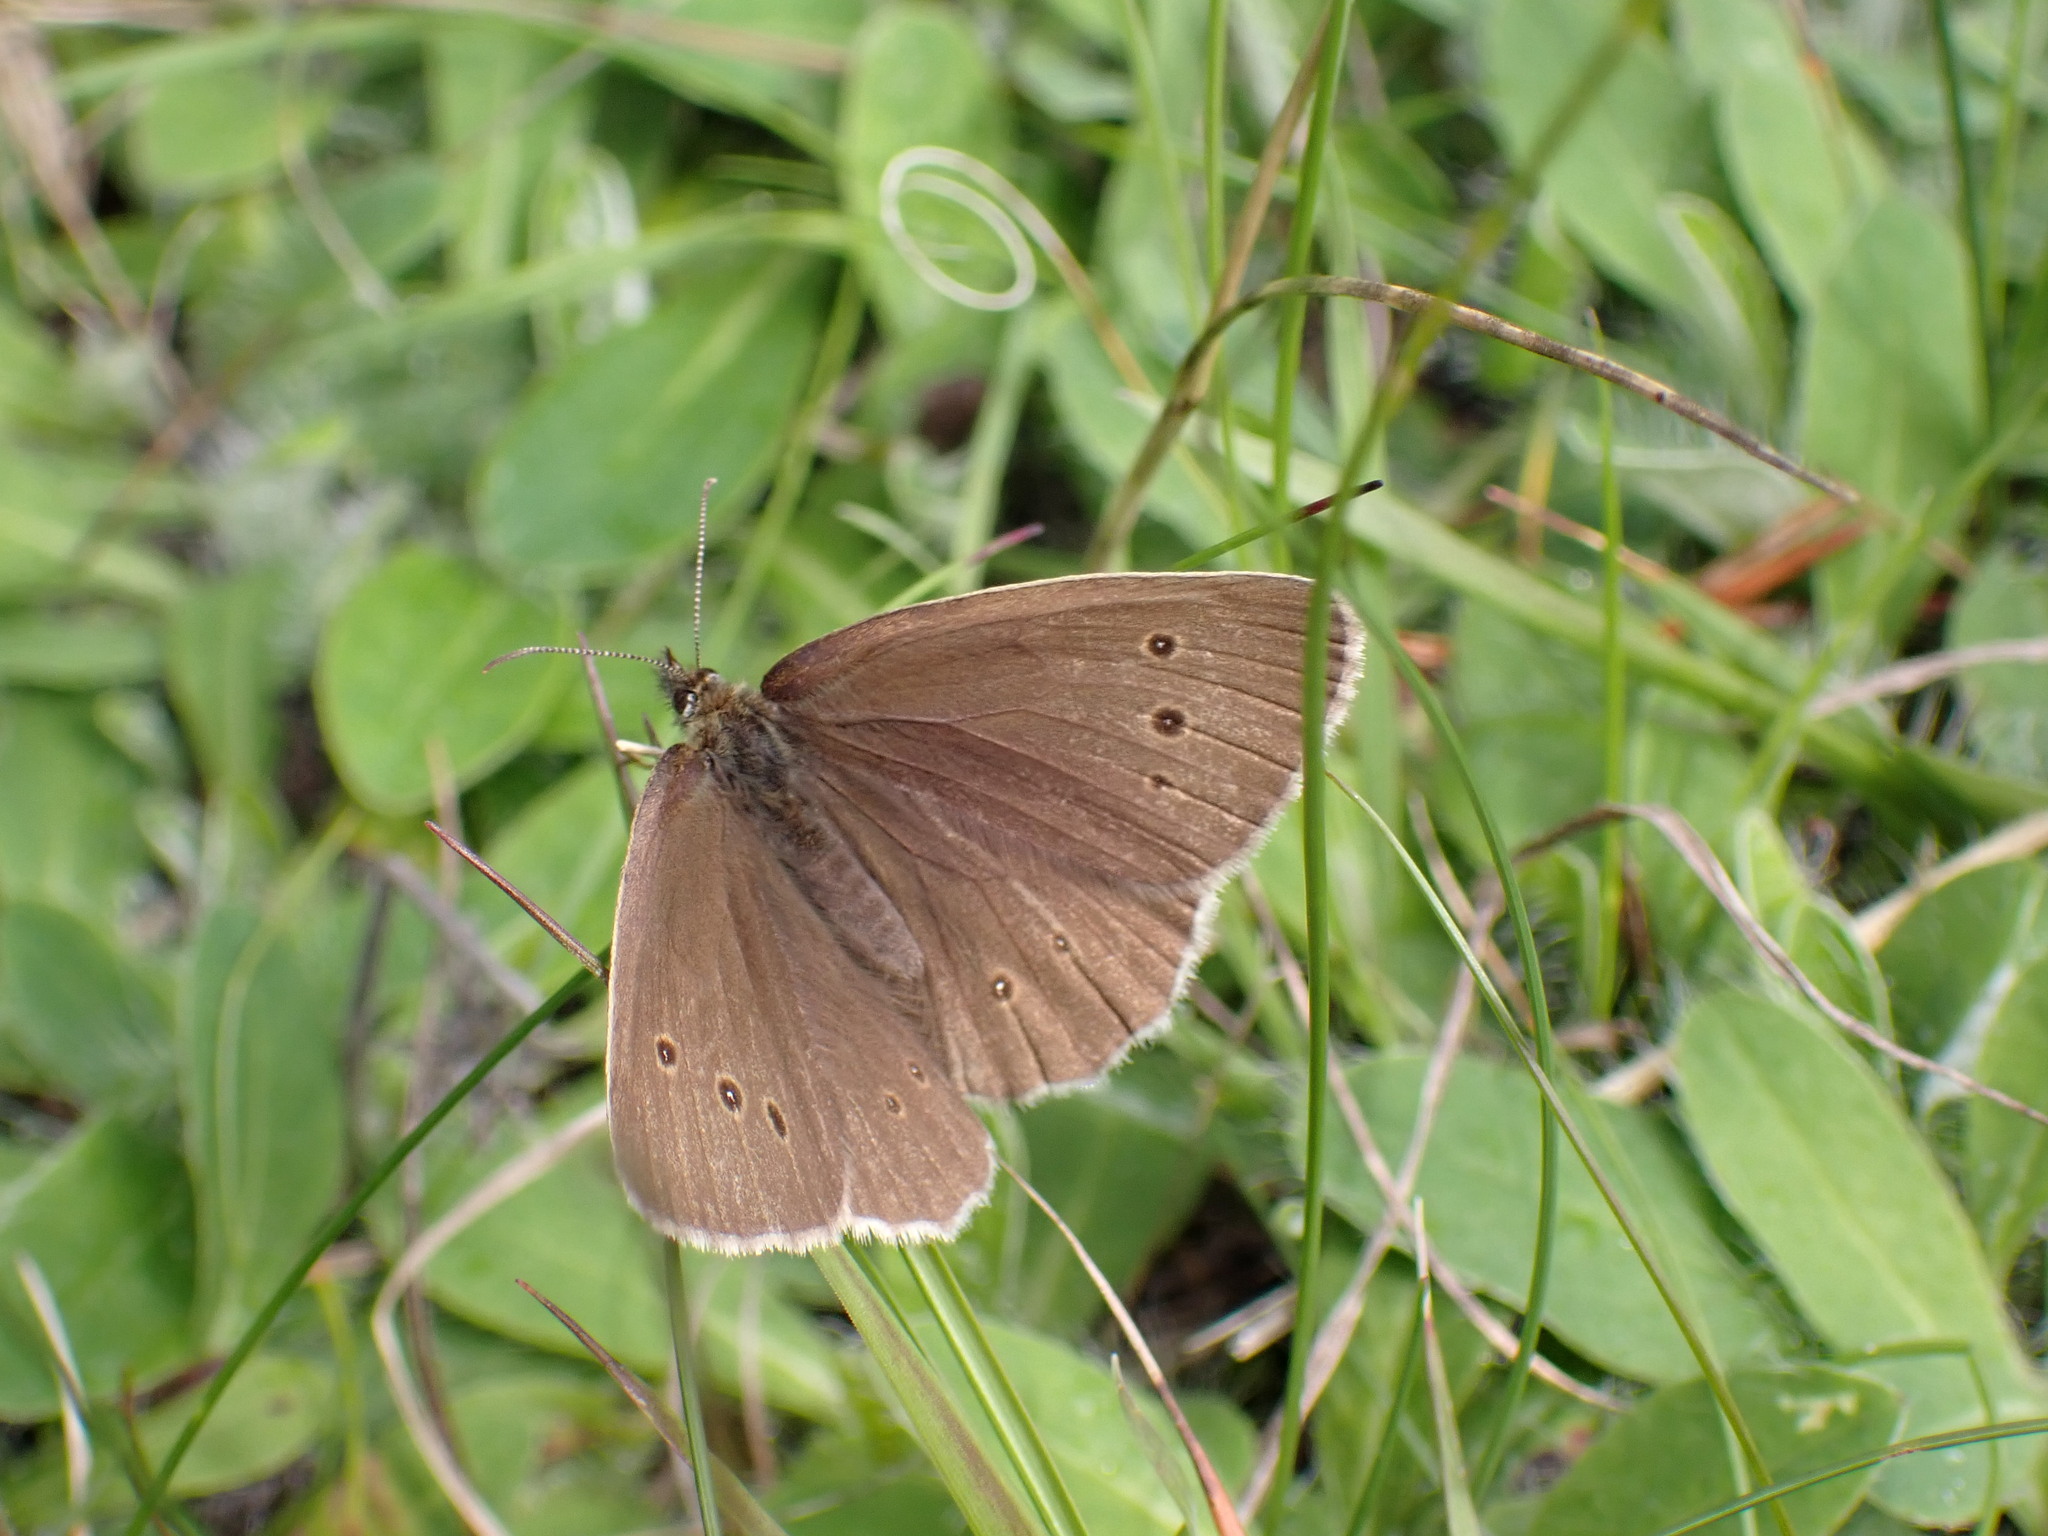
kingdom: Animalia
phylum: Arthropoda
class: Insecta
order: Lepidoptera
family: Nymphalidae
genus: Aphantopus
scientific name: Aphantopus hyperantus
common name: Ringlet
